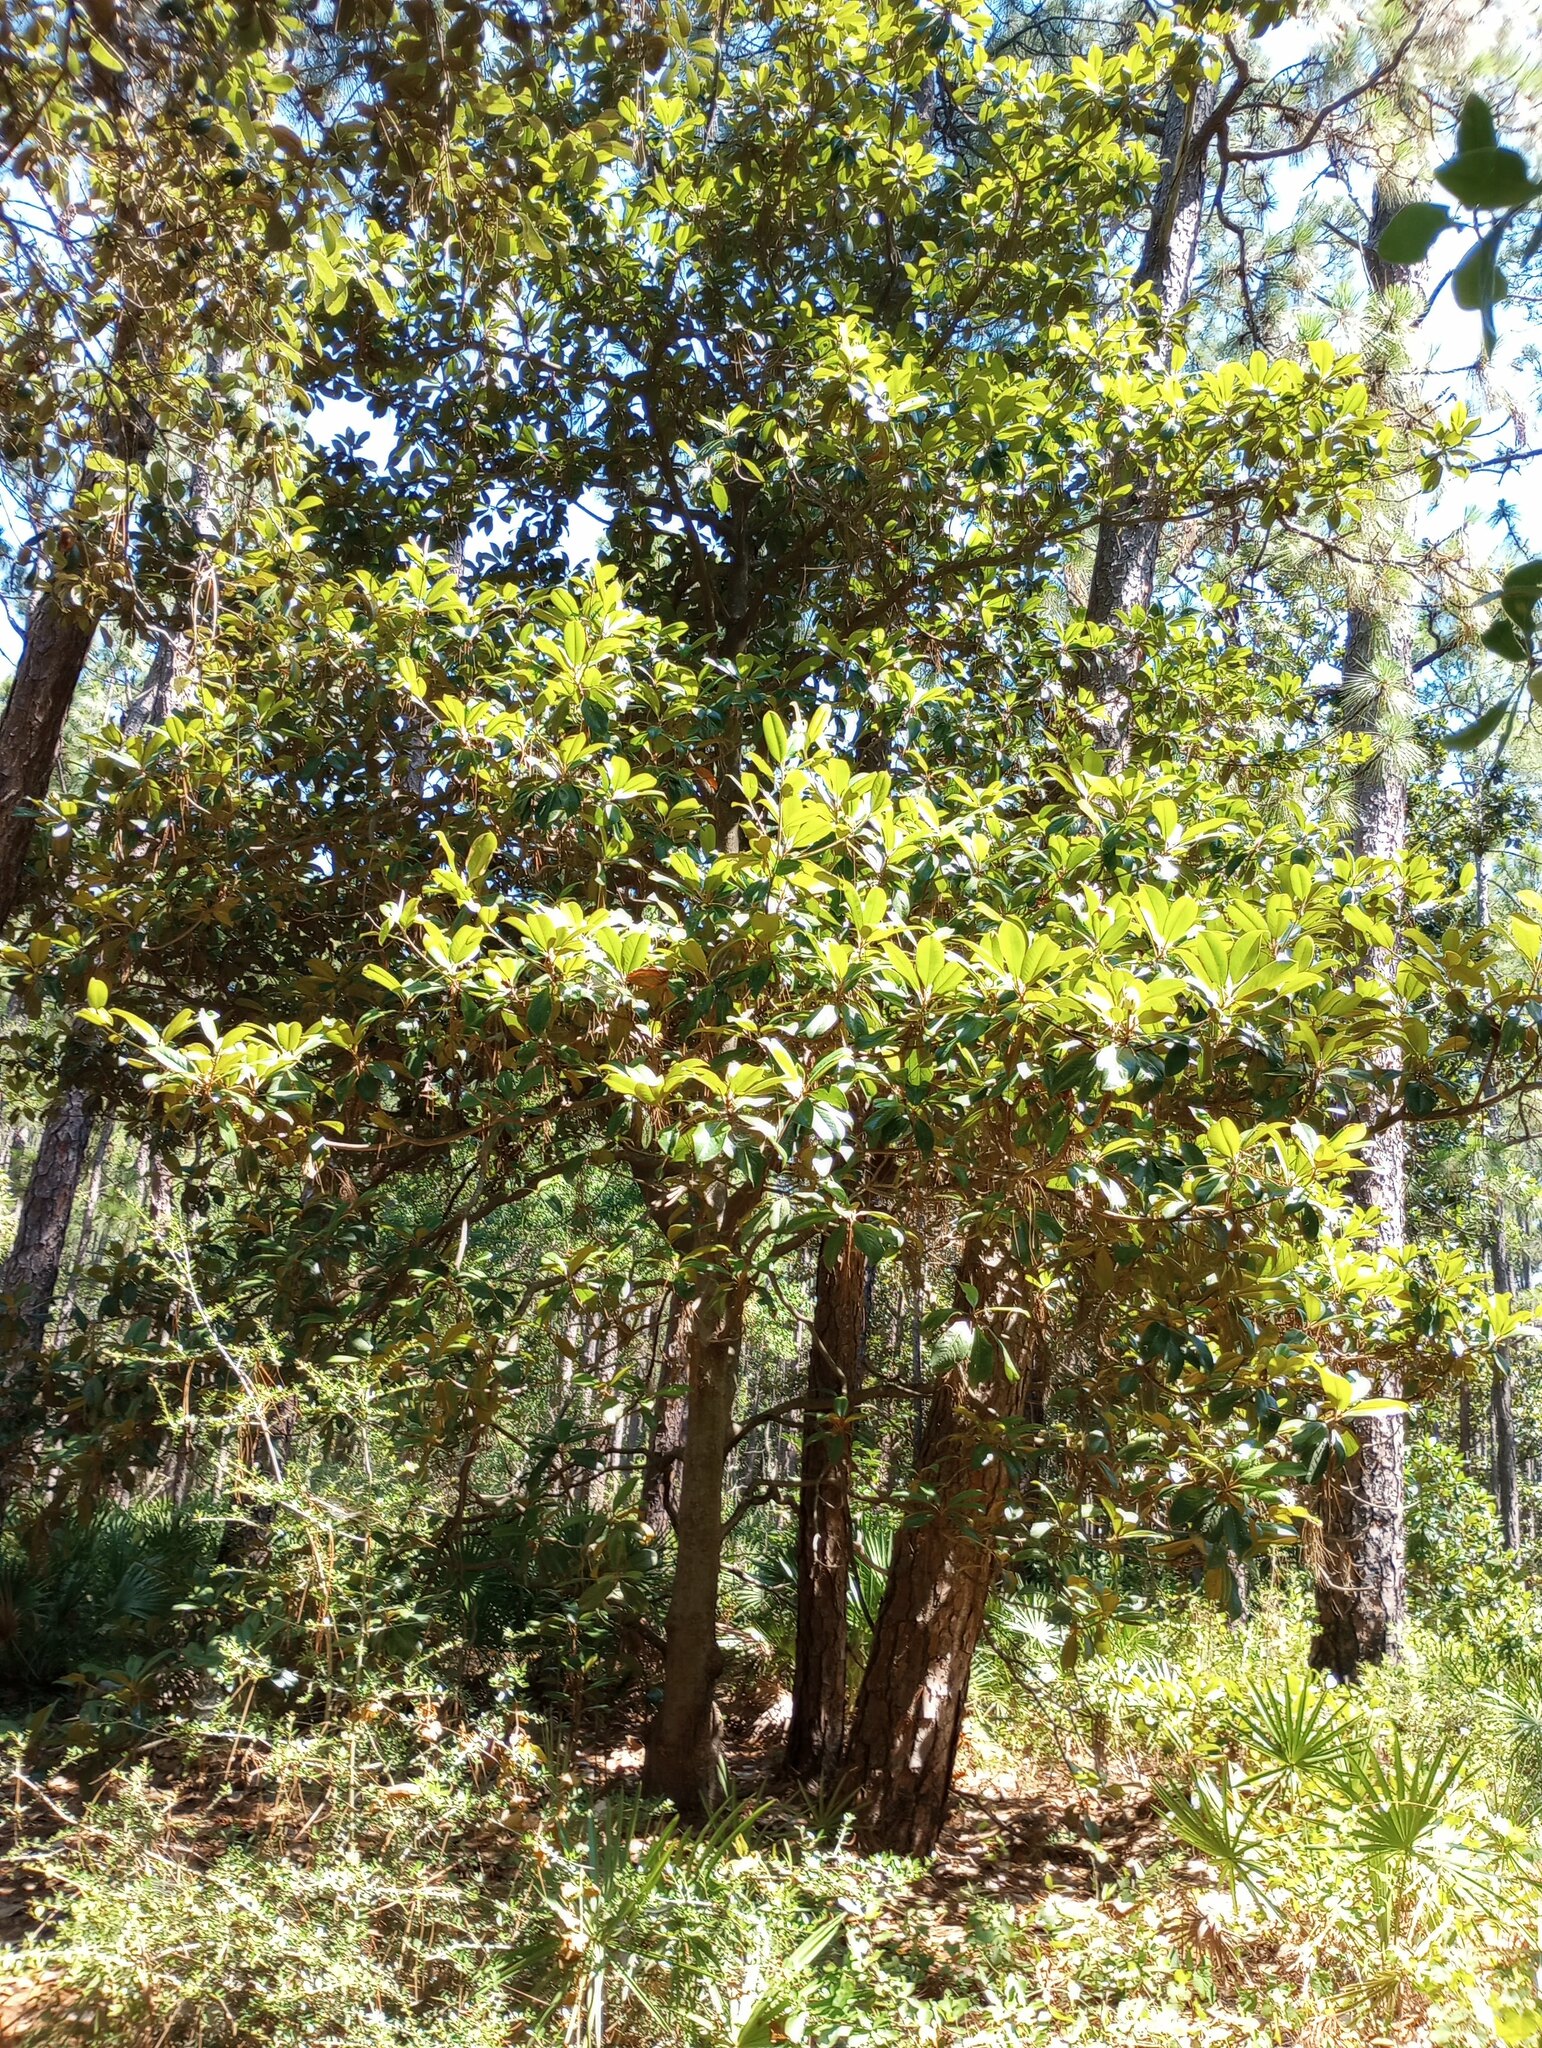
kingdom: Plantae
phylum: Tracheophyta
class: Magnoliopsida
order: Magnoliales
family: Magnoliaceae
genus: Magnolia
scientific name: Magnolia grandiflora
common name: Southern magnolia
